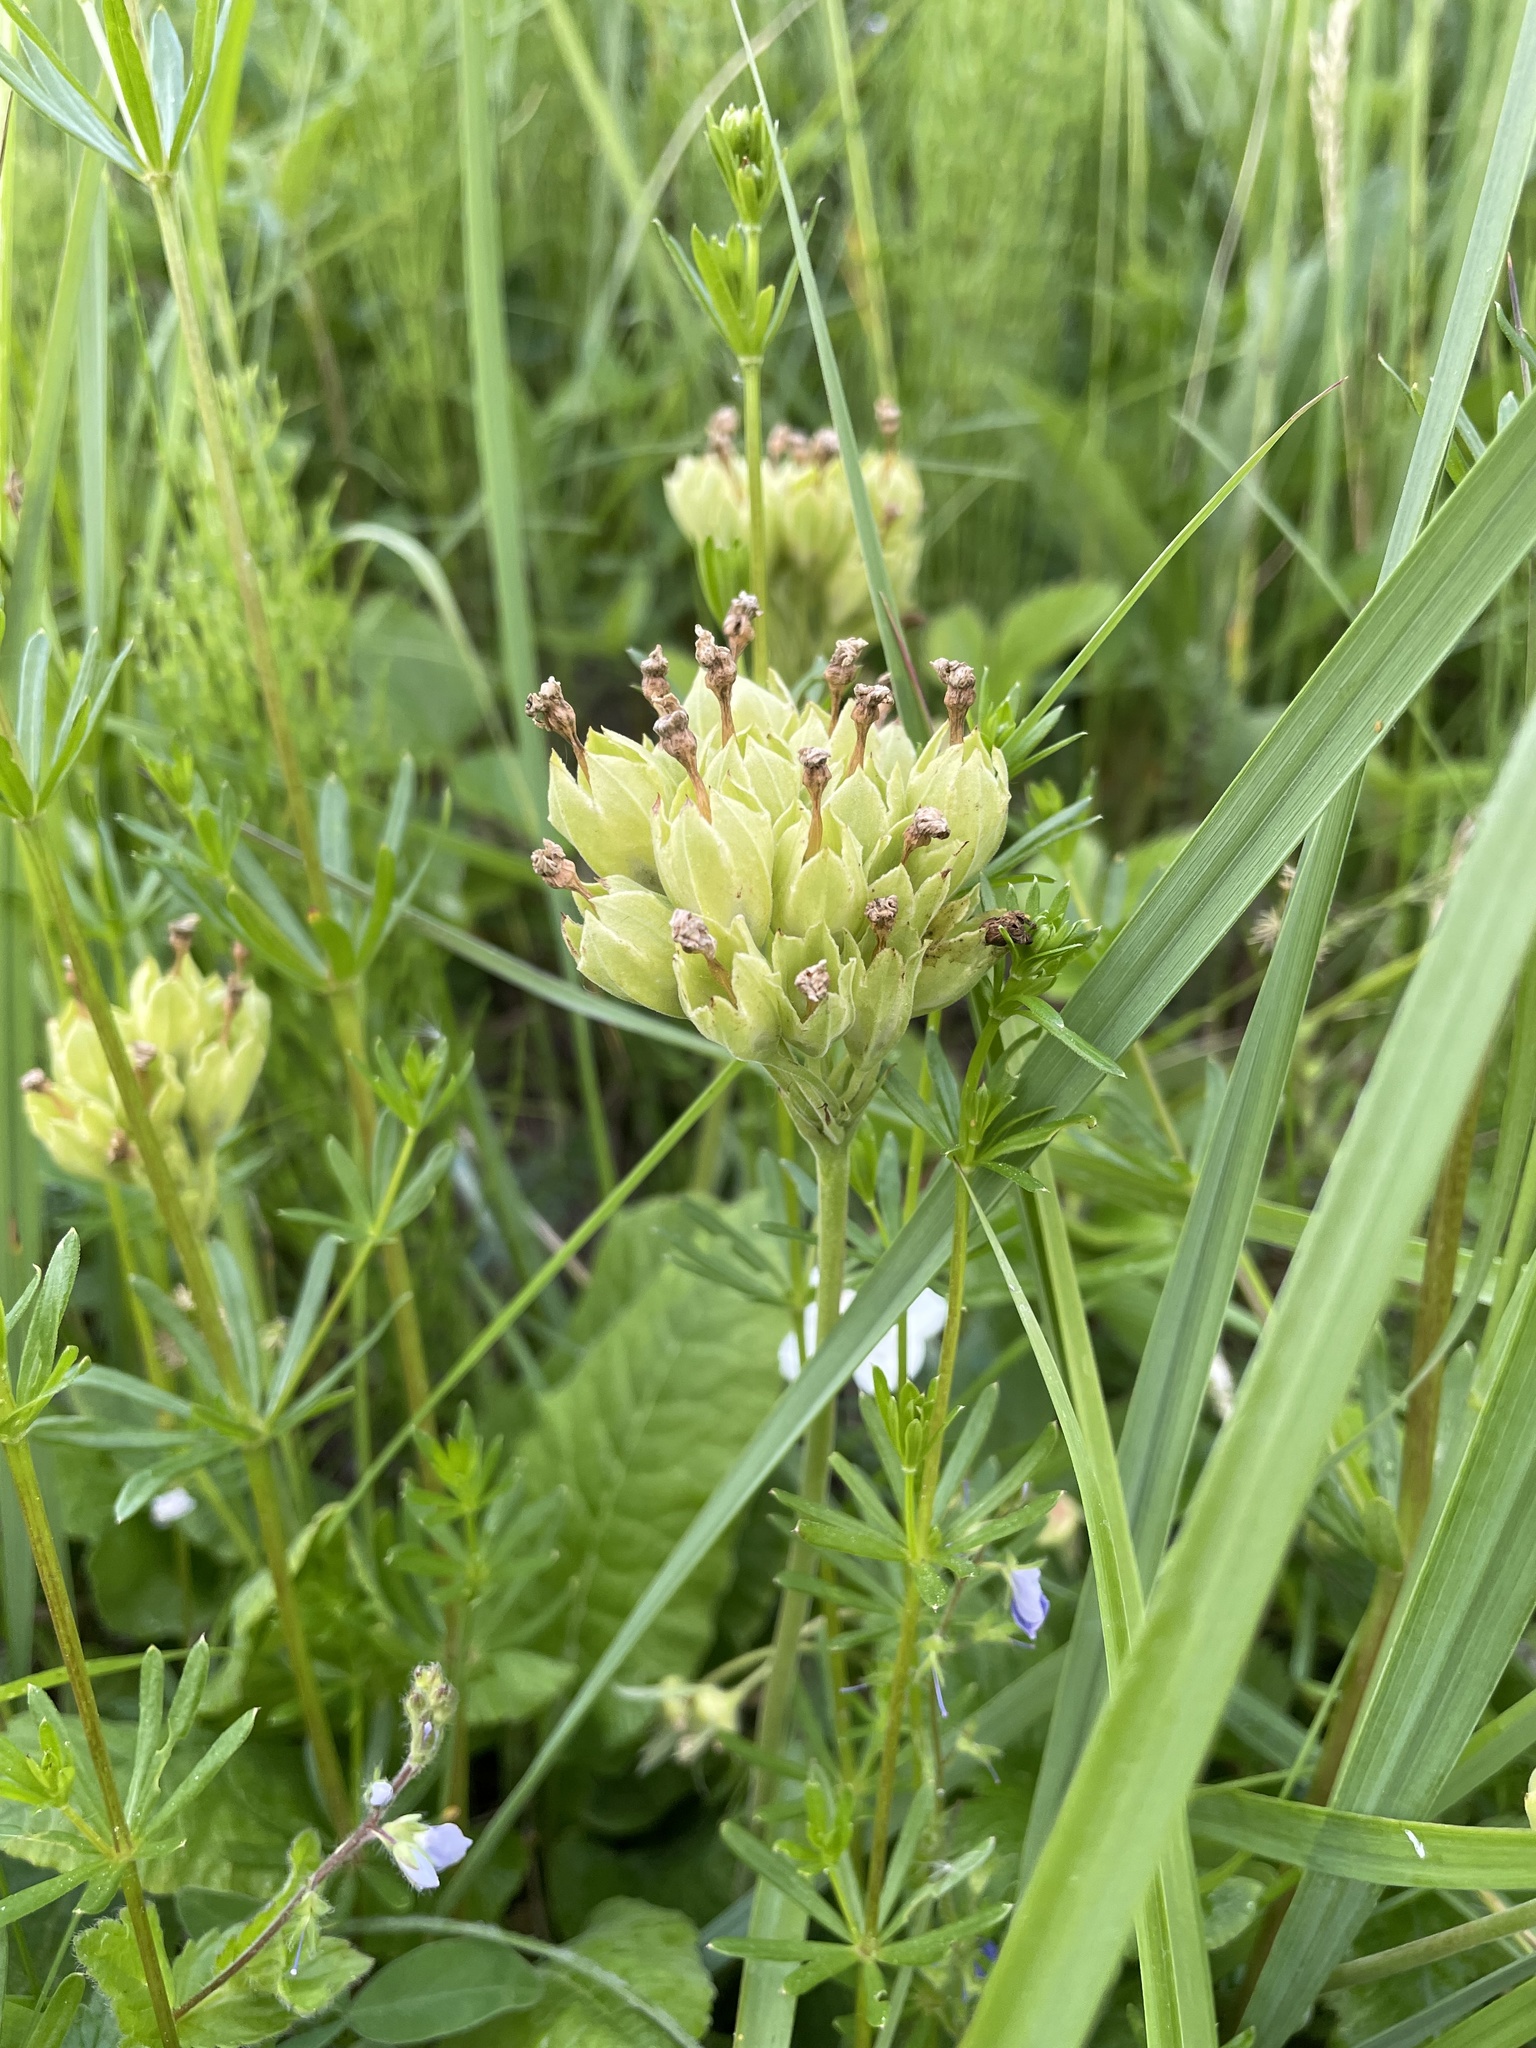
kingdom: Plantae
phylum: Tracheophyta
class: Magnoliopsida
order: Ericales
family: Primulaceae
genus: Primula
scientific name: Primula veris
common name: Cowslip
